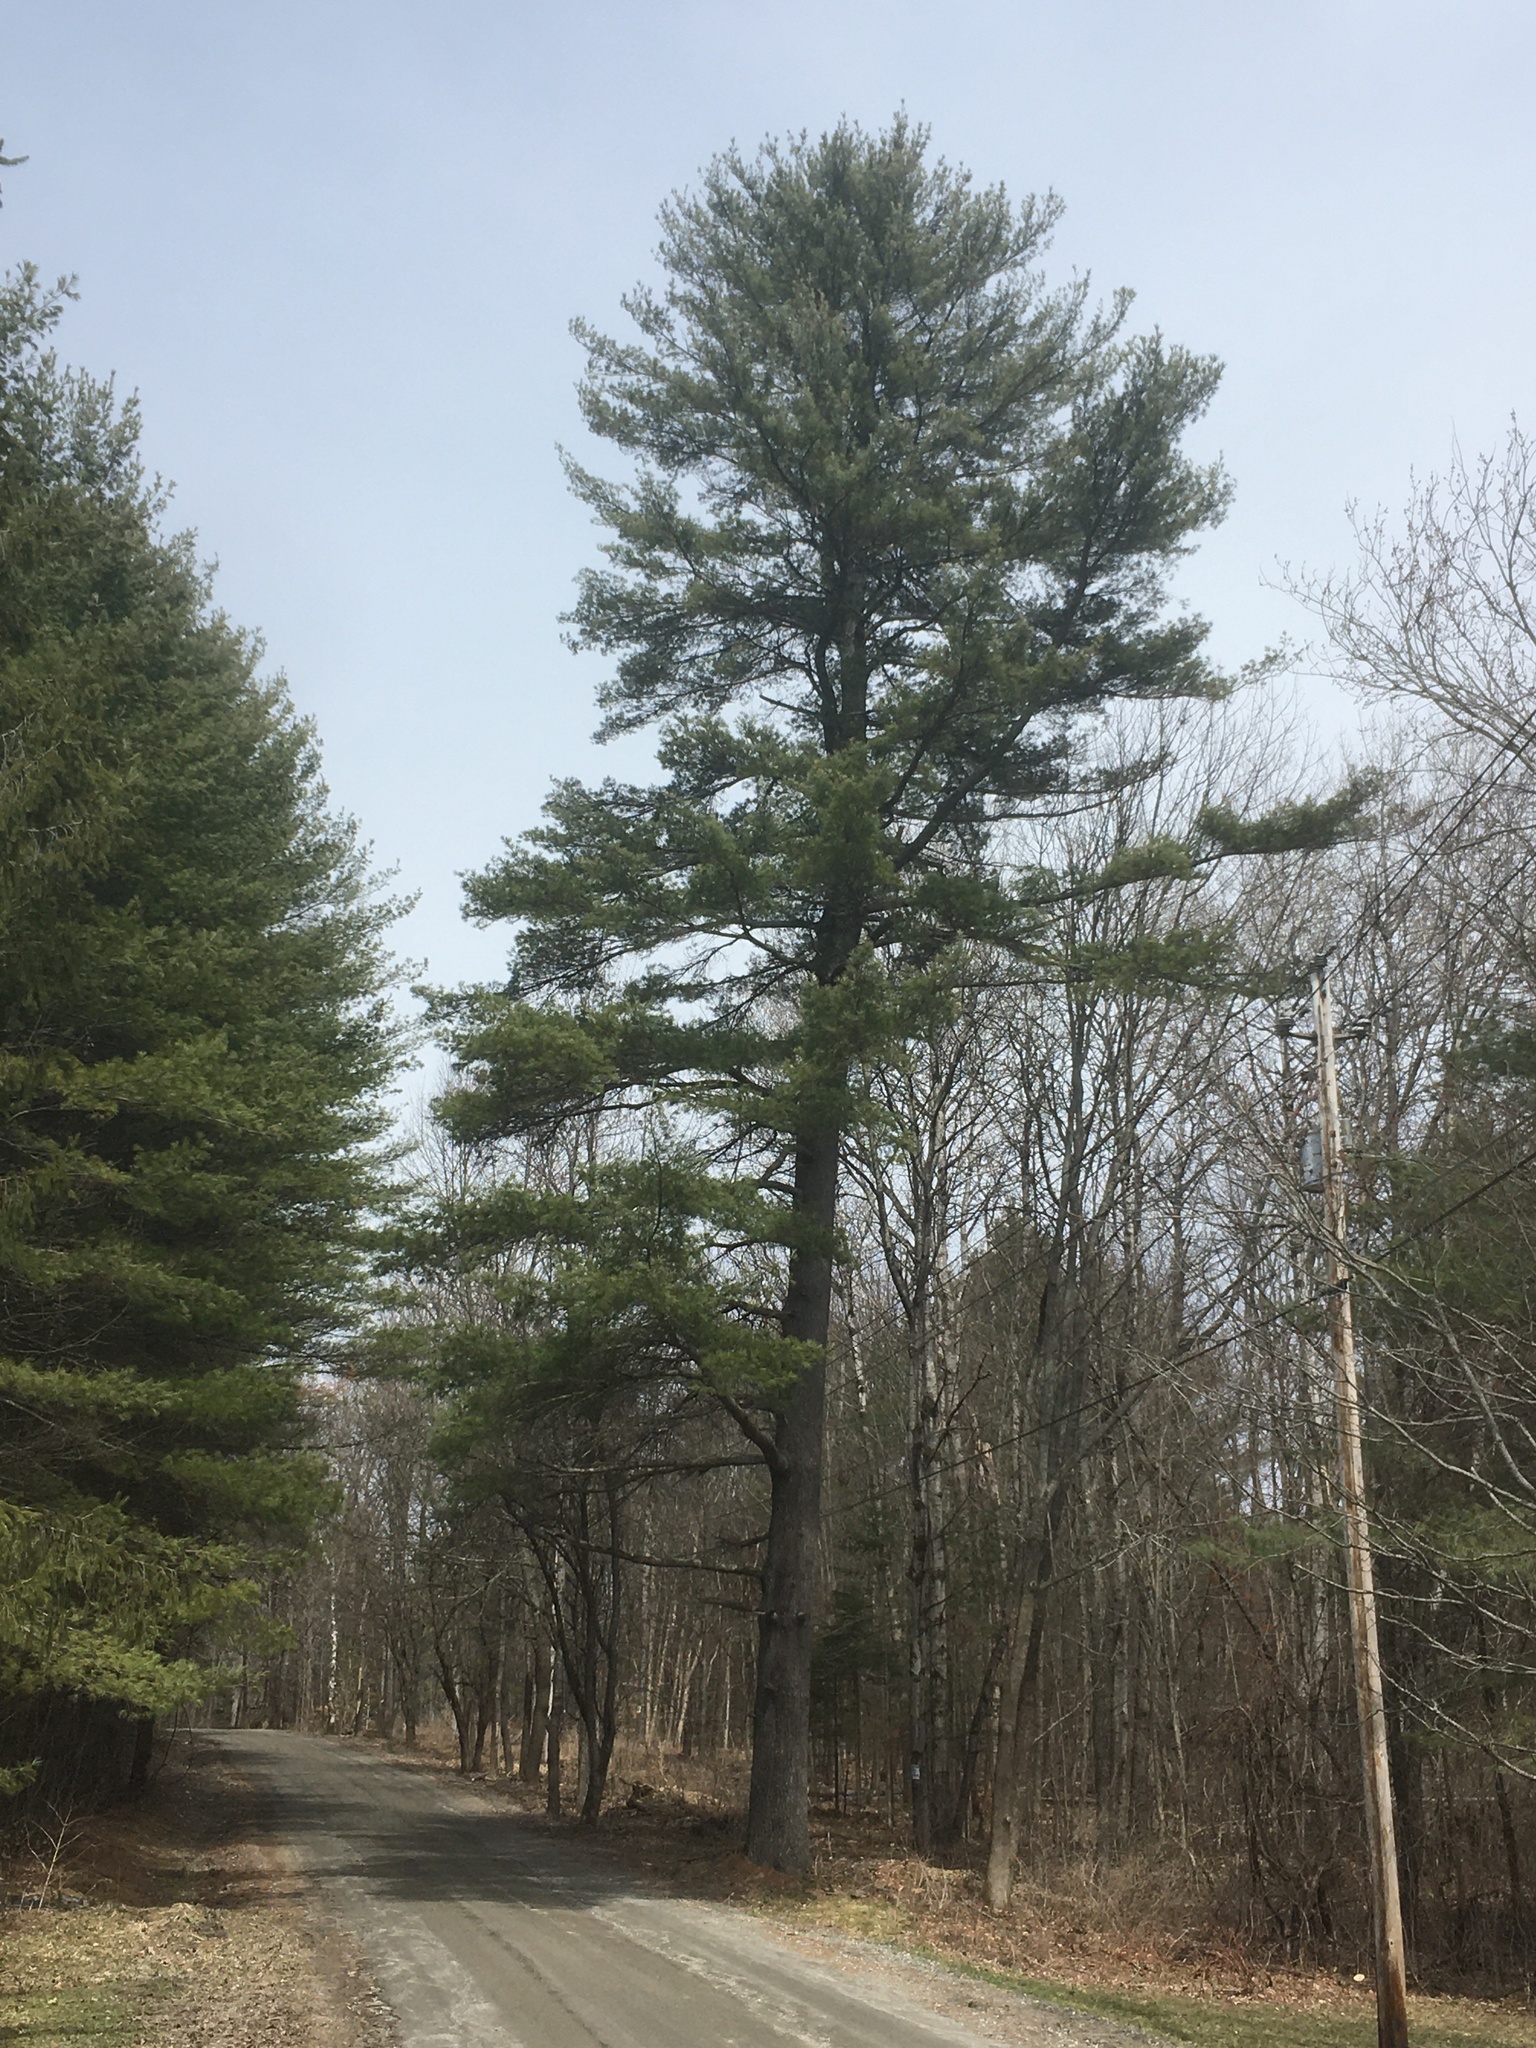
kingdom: Plantae
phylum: Tracheophyta
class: Pinopsida
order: Pinales
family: Pinaceae
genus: Pinus
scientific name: Pinus strobus
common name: Weymouth pine
